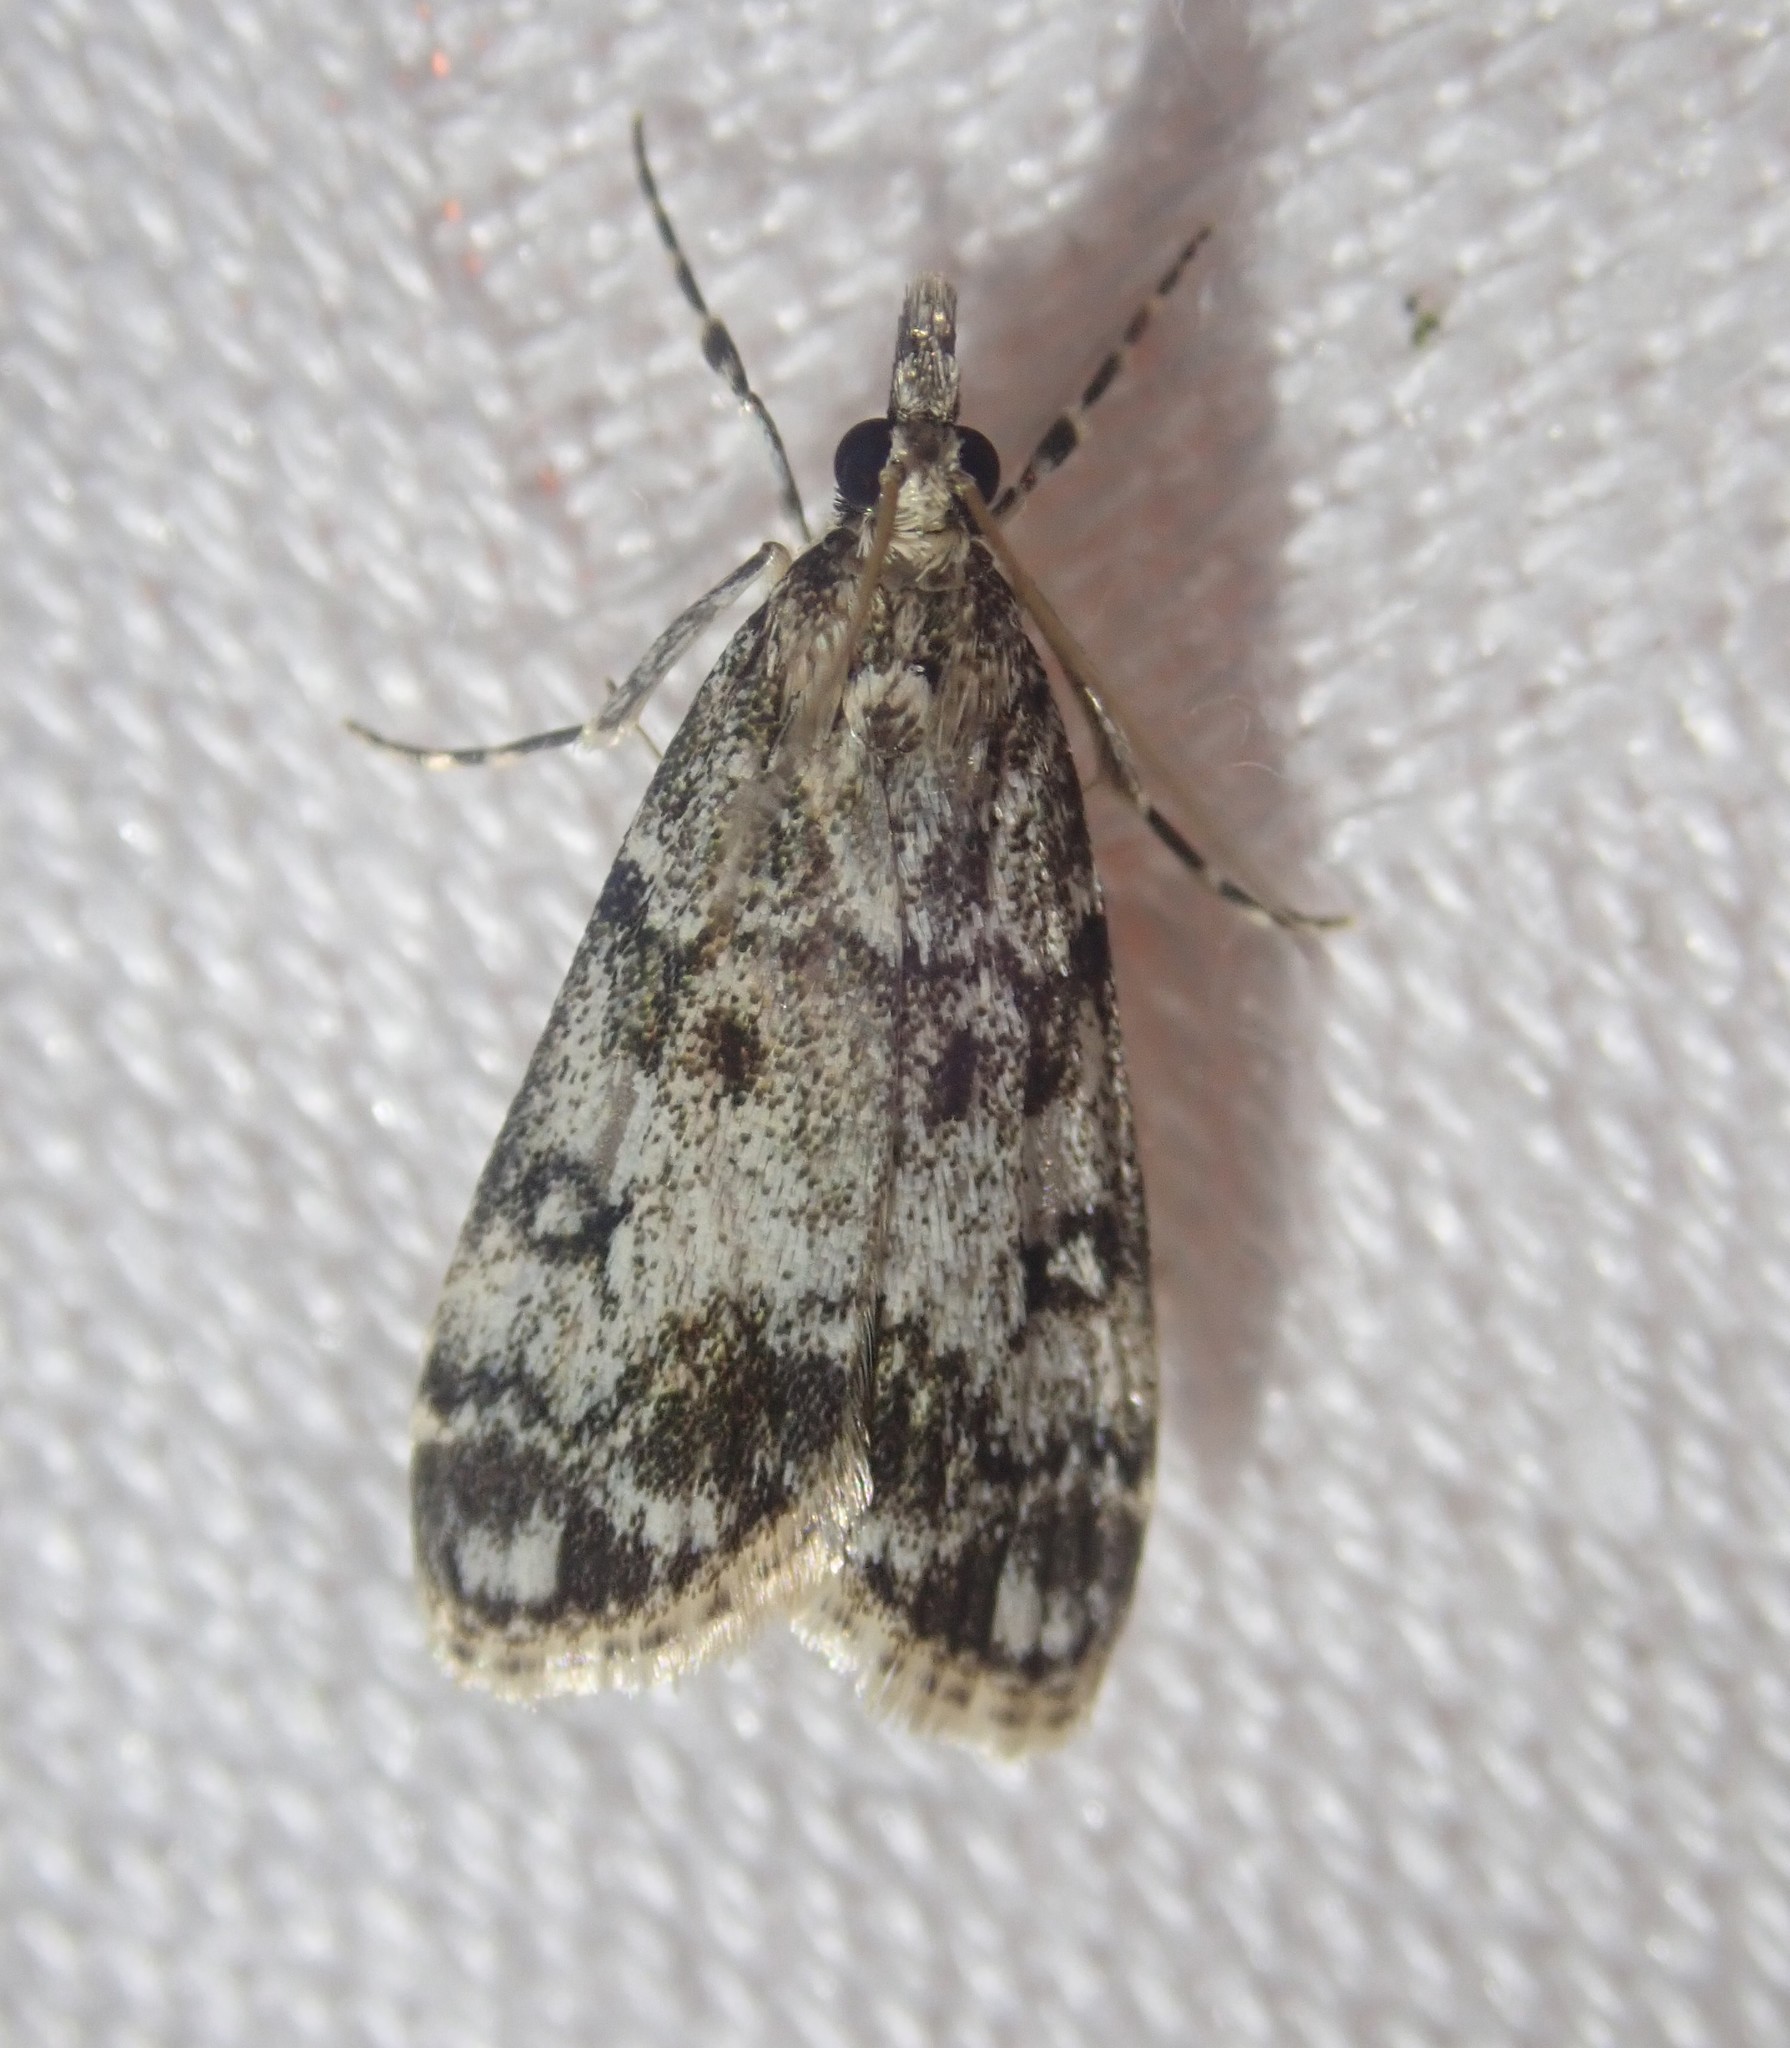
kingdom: Animalia
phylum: Arthropoda
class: Insecta
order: Lepidoptera
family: Crambidae
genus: Eudonia
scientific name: Eudonia lacustrata
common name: Little grey
